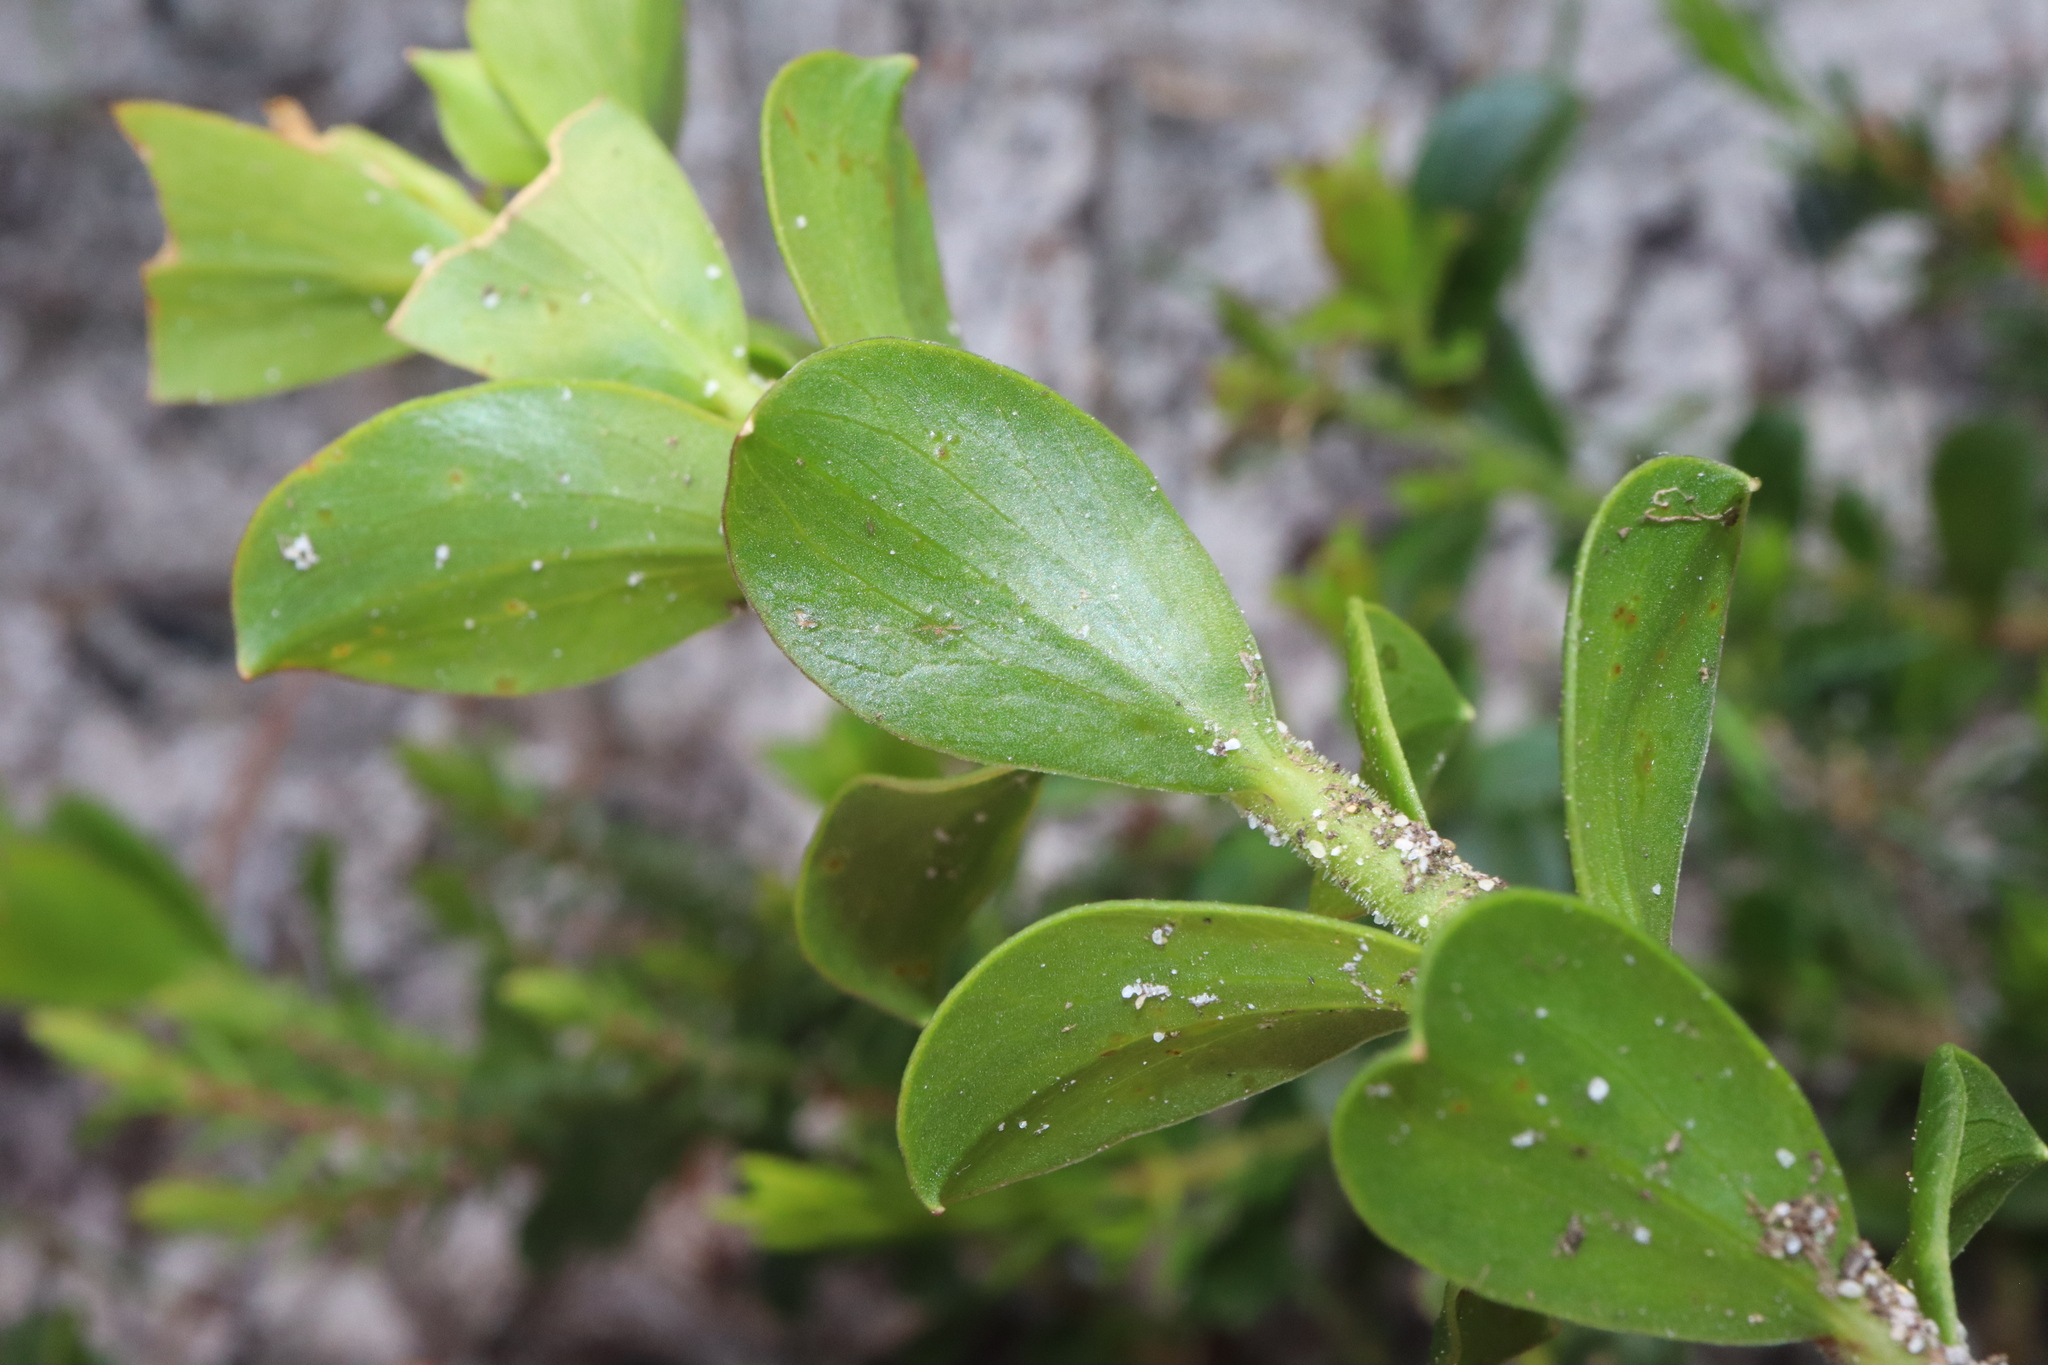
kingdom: Plantae
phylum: Tracheophyta
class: Magnoliopsida
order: Apiales
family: Apiaceae
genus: Platysace
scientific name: Platysace lanceolata
